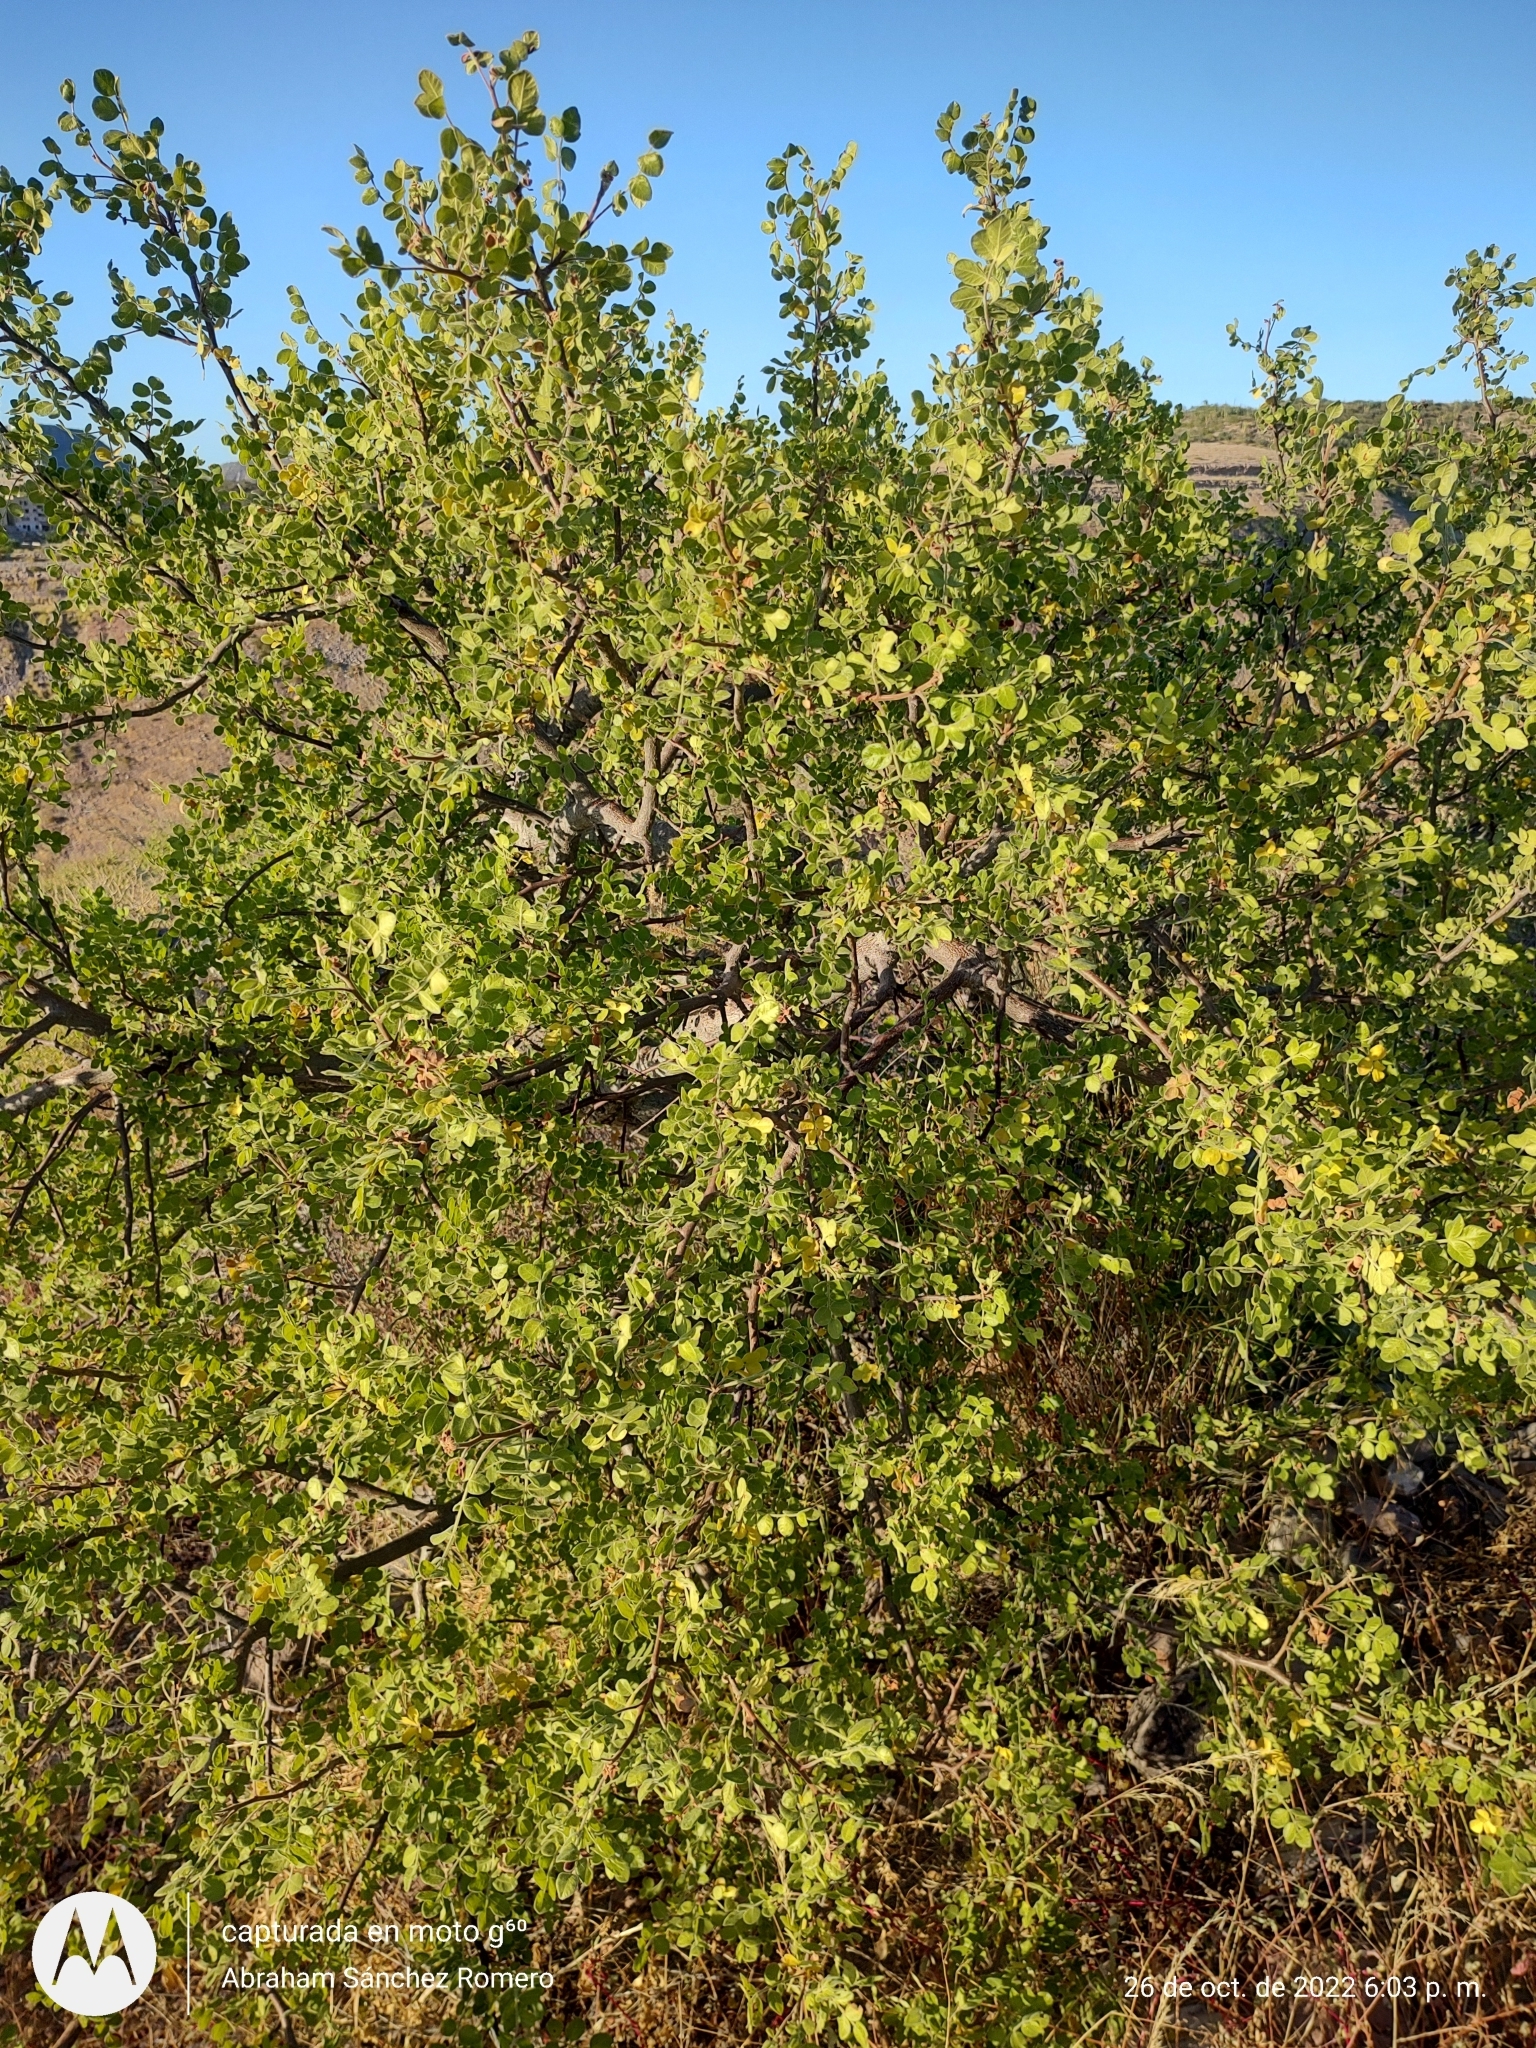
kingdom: Plantae
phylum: Tracheophyta
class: Magnoliopsida
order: Sapindales
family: Anacardiaceae
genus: Cyrtocarpa
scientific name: Cyrtocarpa edulis
